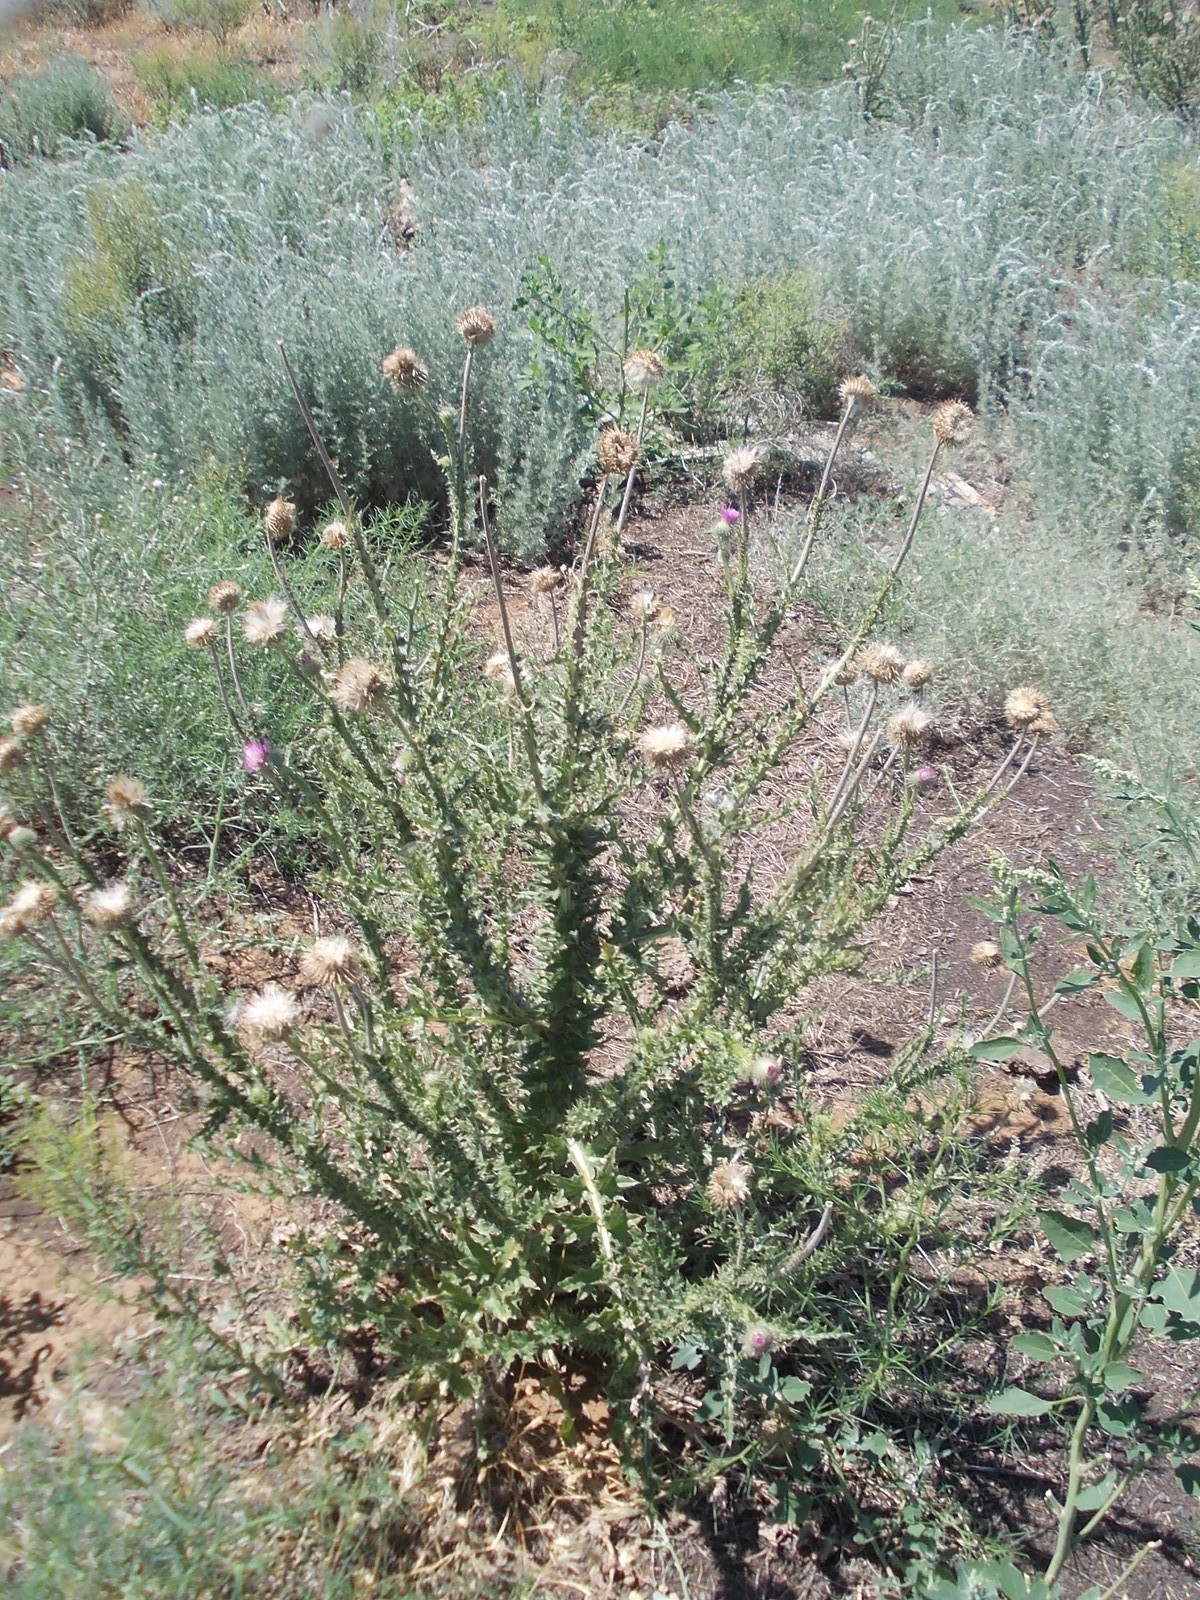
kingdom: Plantae
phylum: Tracheophyta
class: Magnoliopsida
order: Asterales
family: Asteraceae
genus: Carduus
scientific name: Carduus uncinatus
